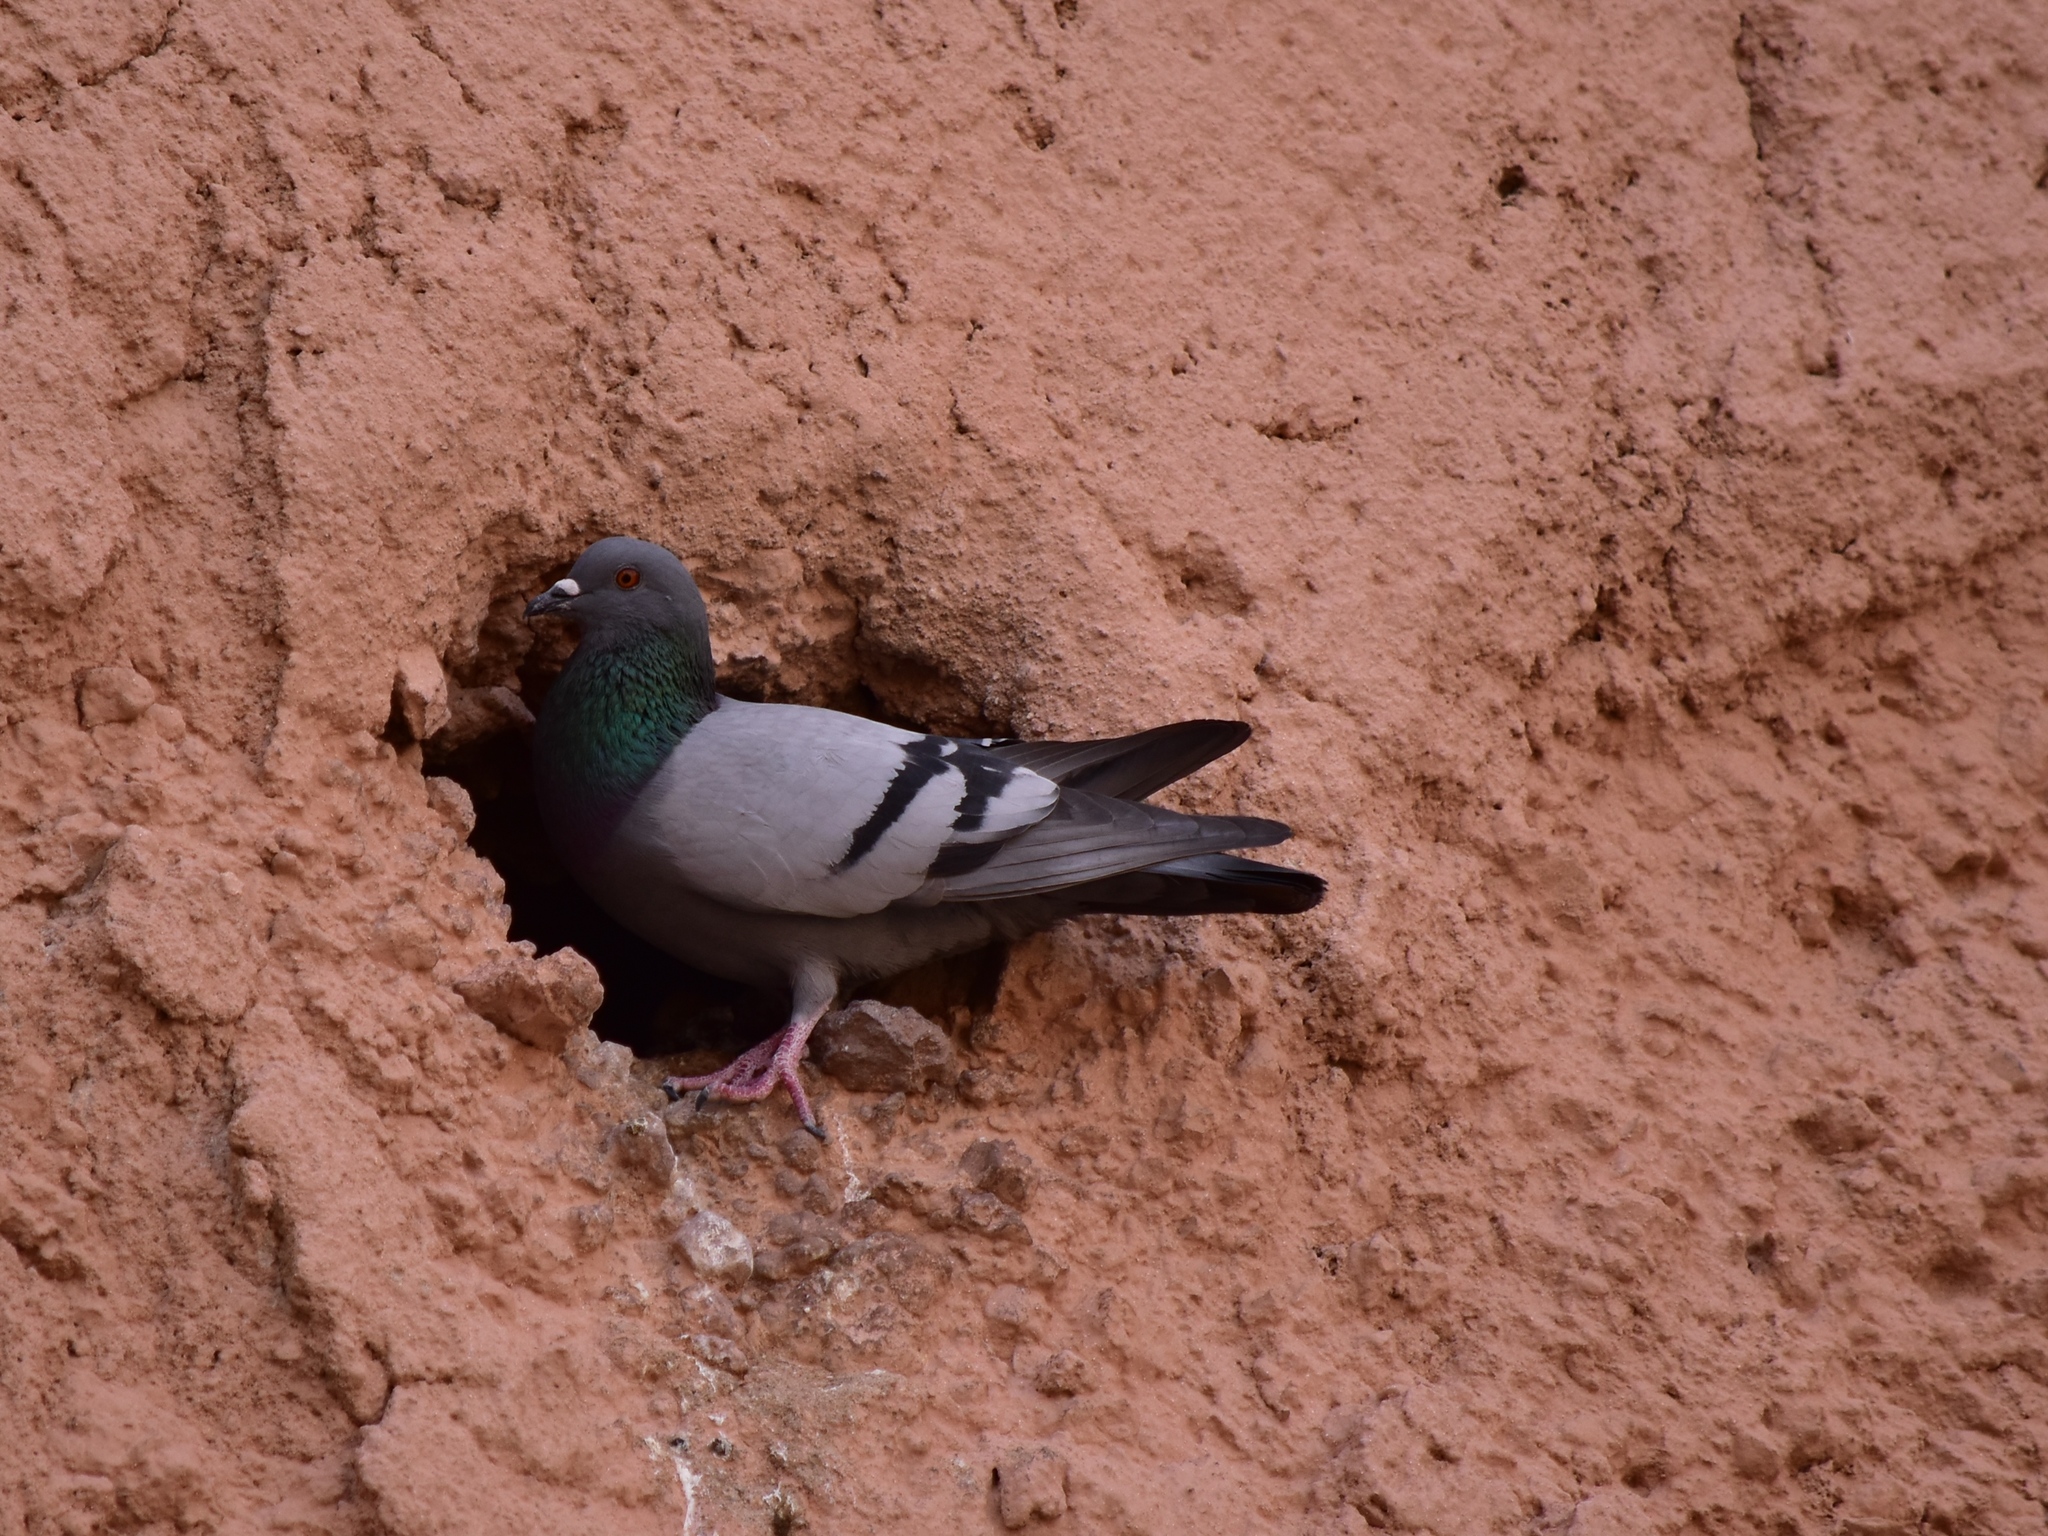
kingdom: Animalia
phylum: Chordata
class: Aves
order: Columbiformes
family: Columbidae
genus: Columba
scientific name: Columba livia
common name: Rock pigeon
